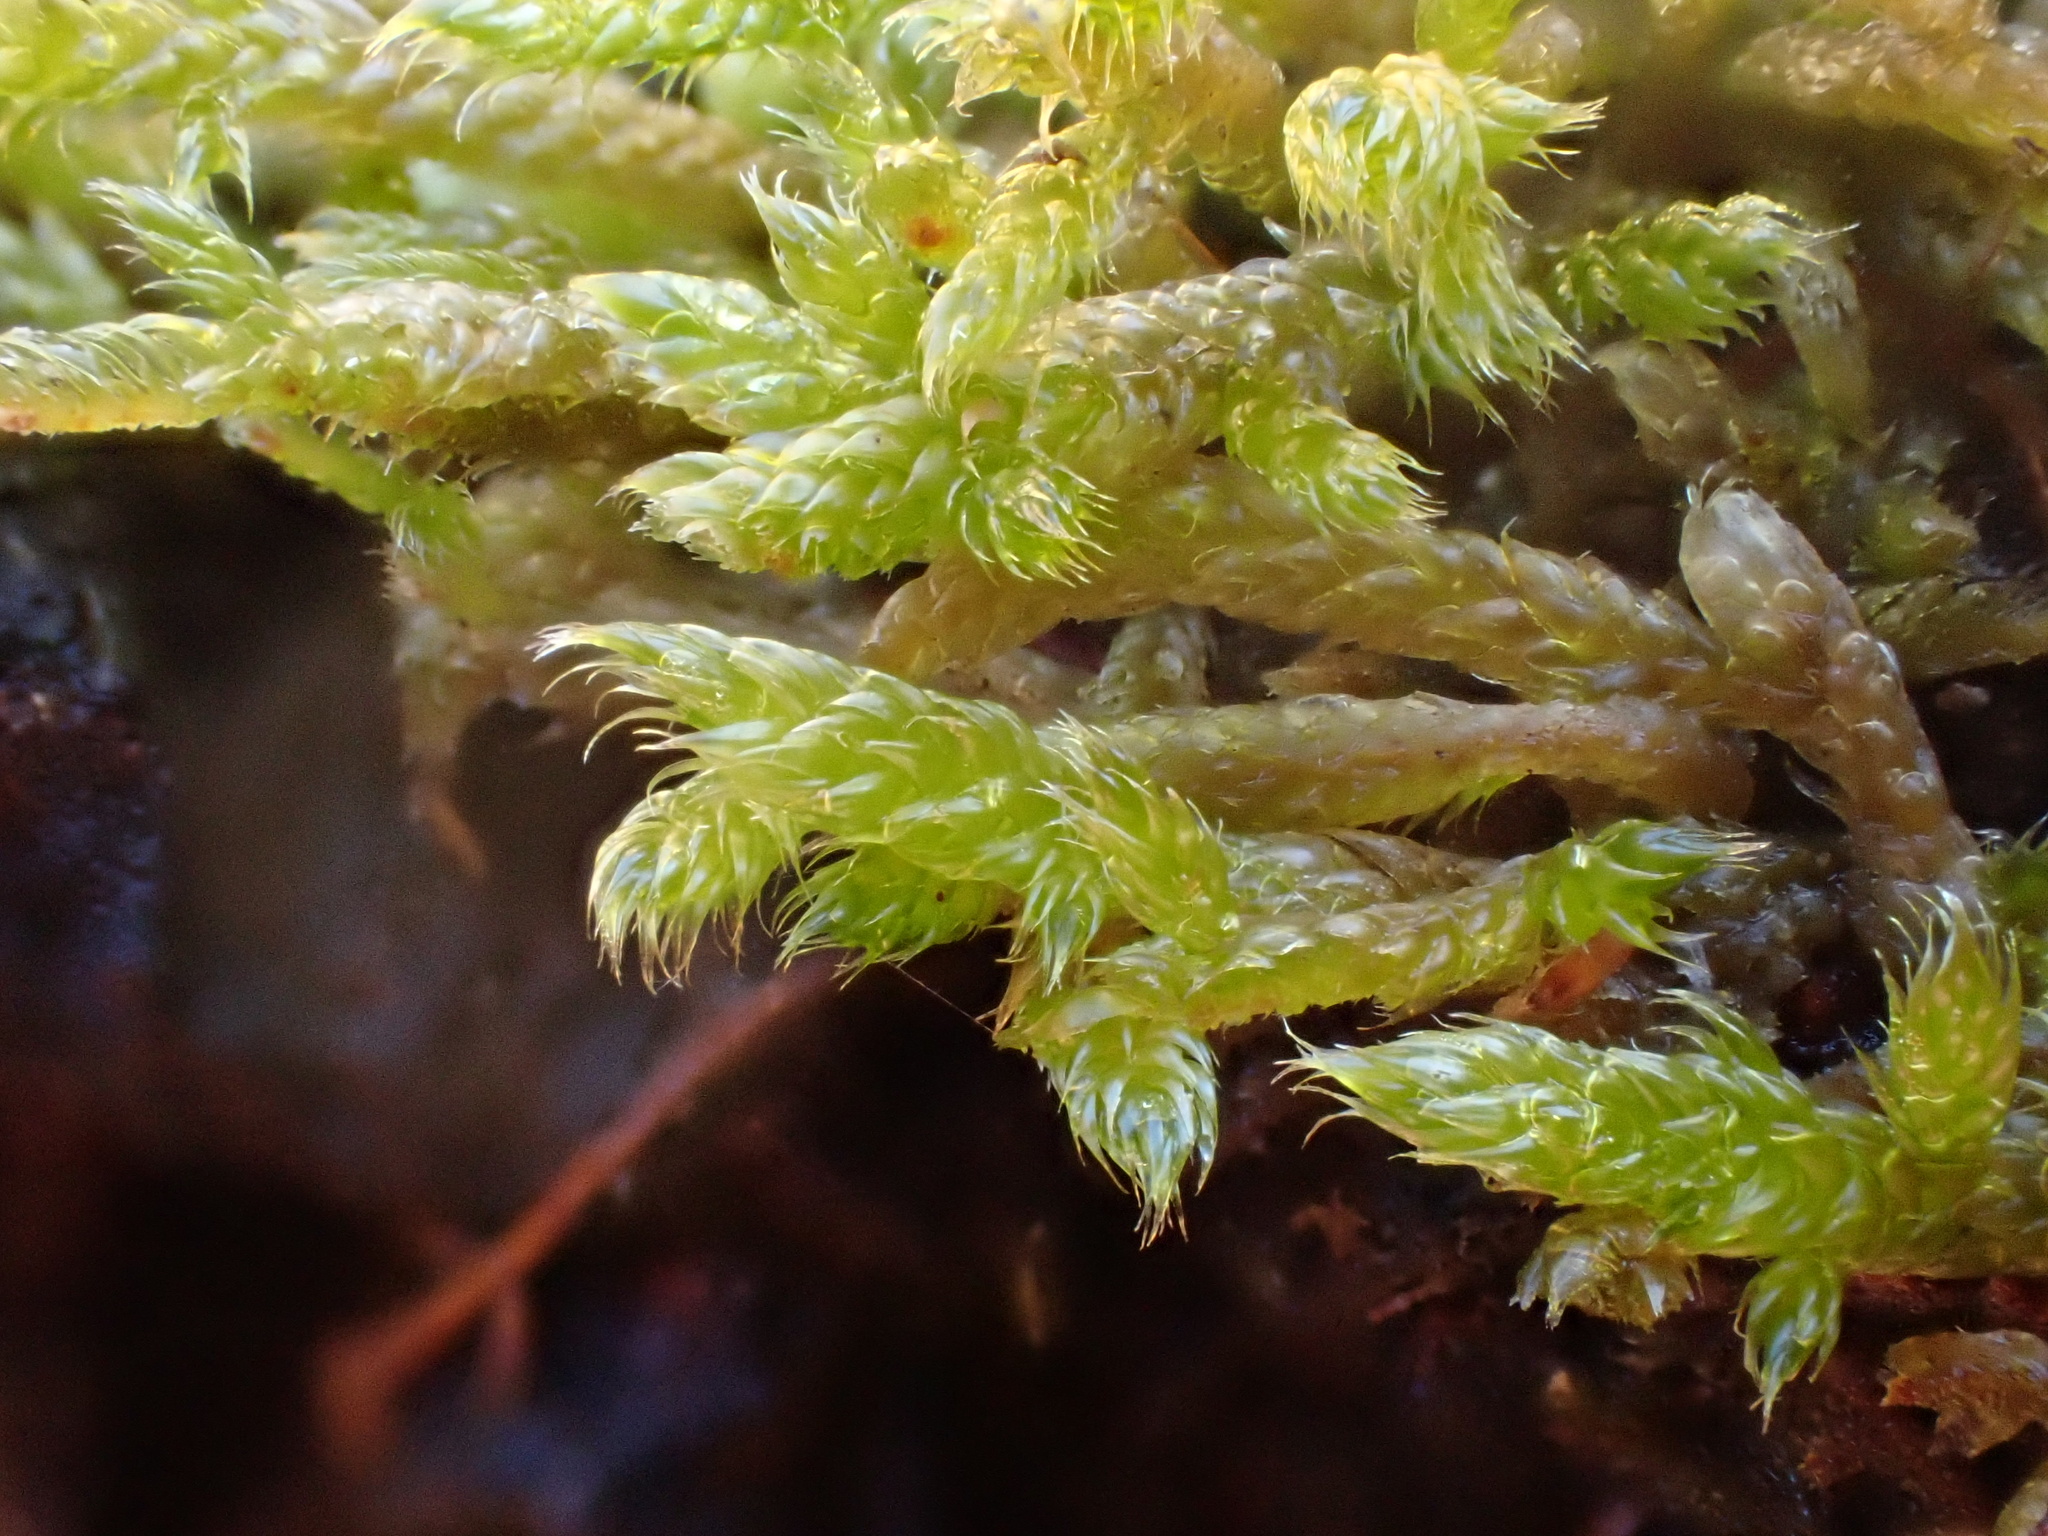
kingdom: Plantae
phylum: Bryophyta
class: Bryopsida
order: Hypnales
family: Hypnaceae
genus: Hypnum
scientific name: Hypnum cupressiforme
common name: Cypress-leaved plait-moss
